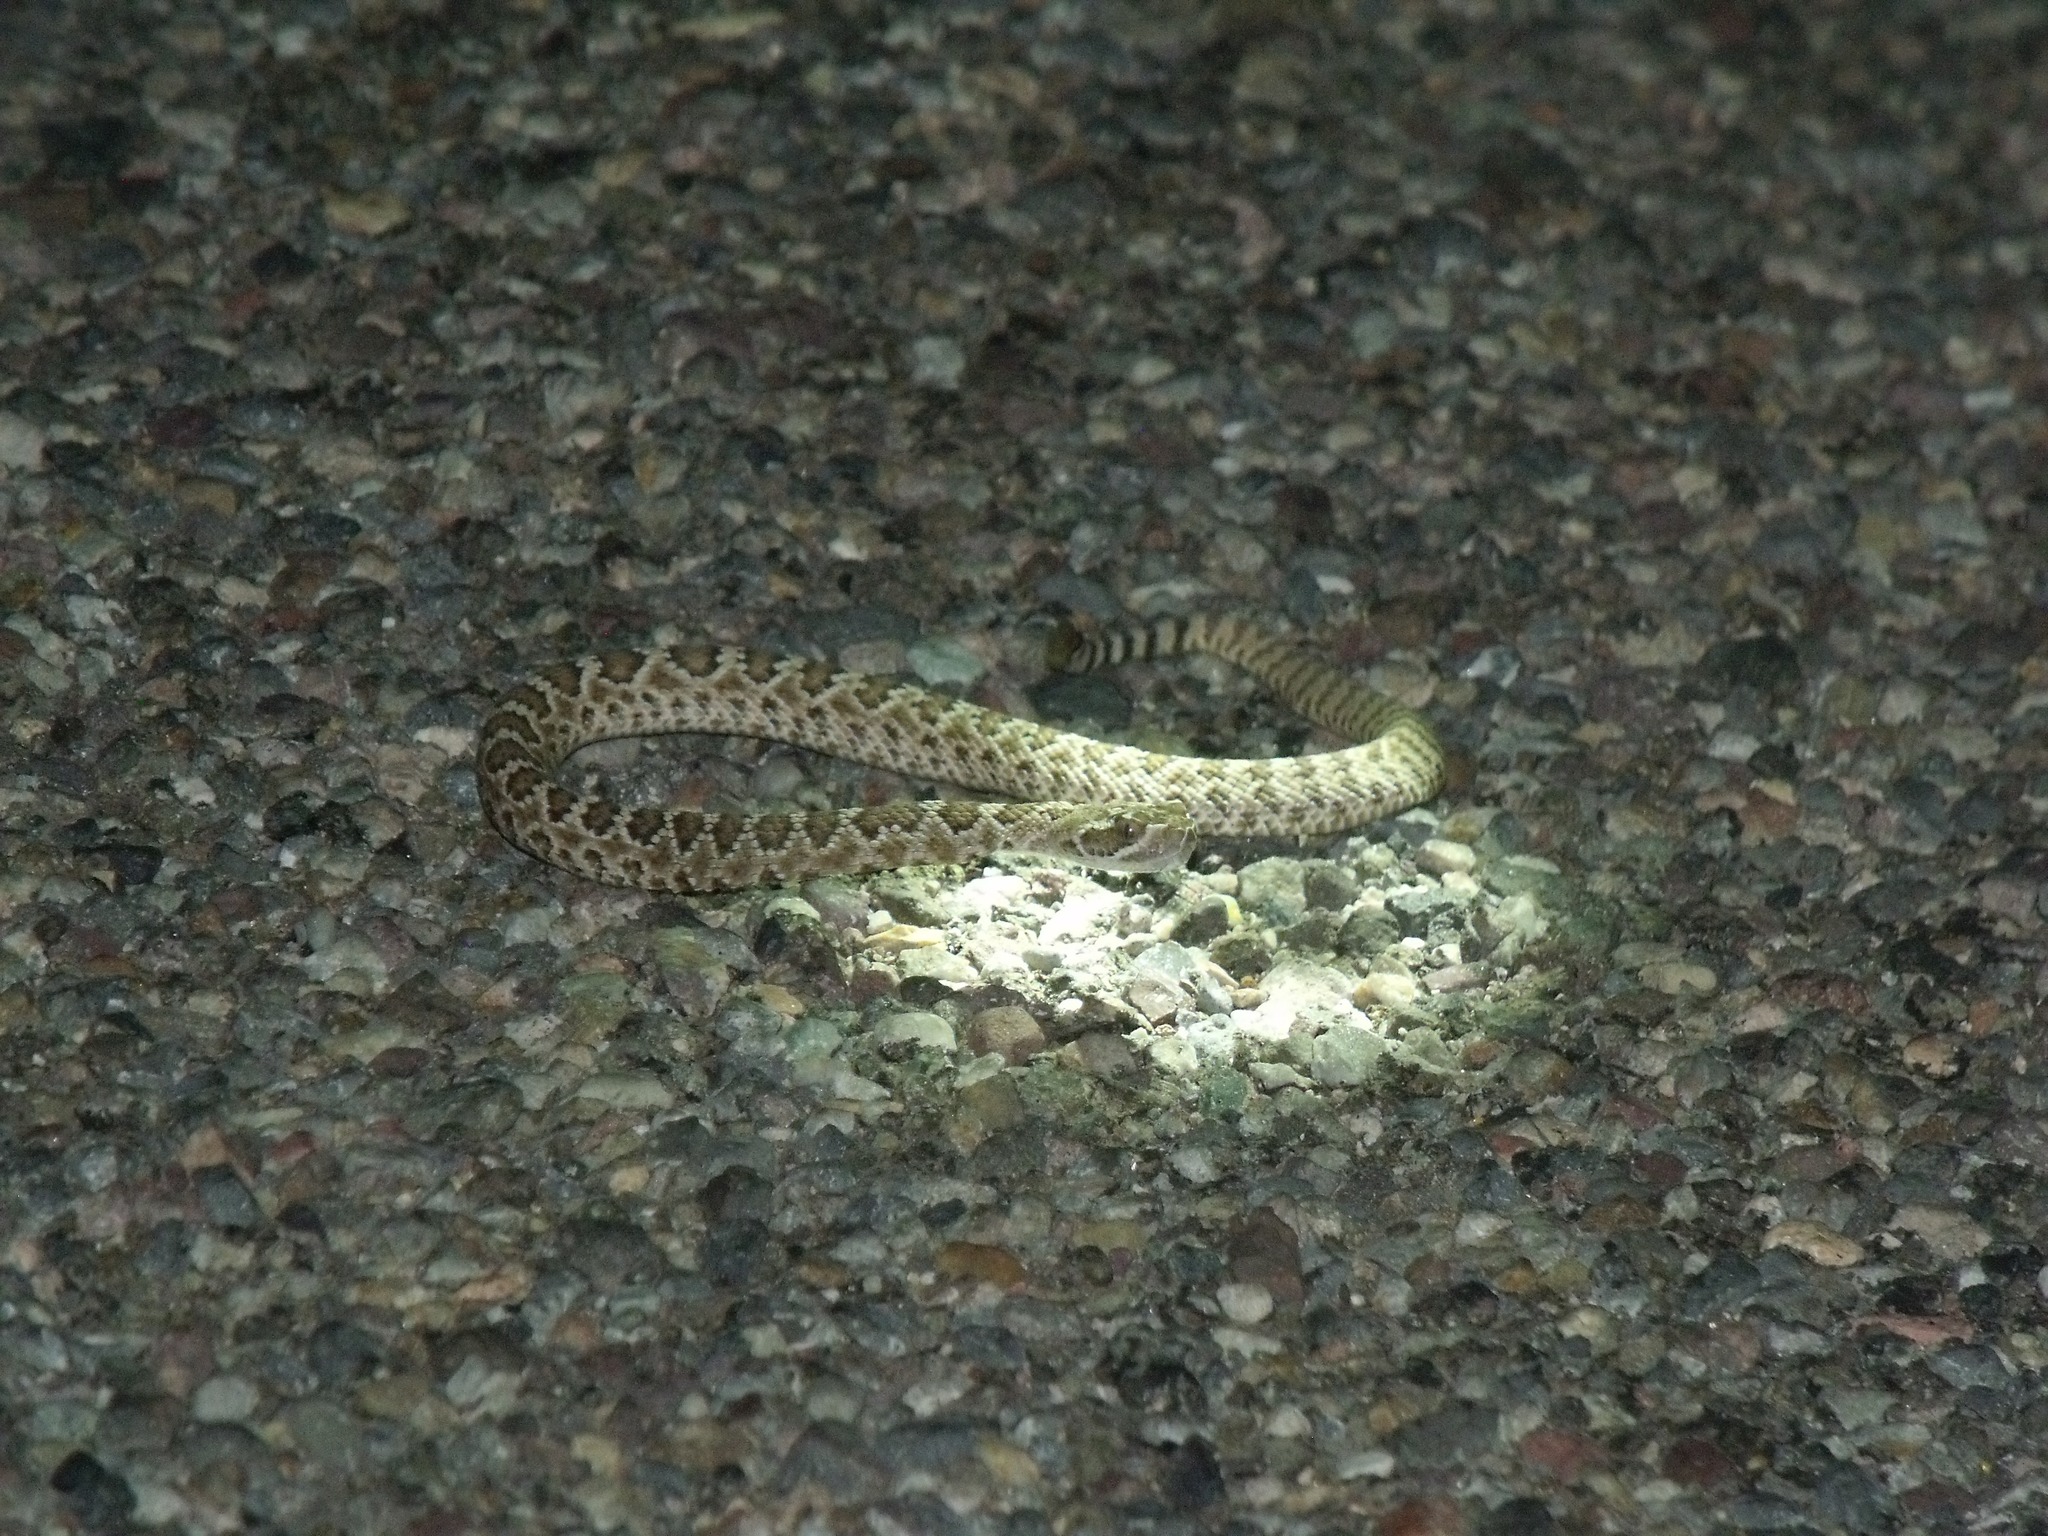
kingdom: Animalia
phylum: Chordata
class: Squamata
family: Viperidae
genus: Crotalus
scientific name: Crotalus scutulatus
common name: Scutulatus
